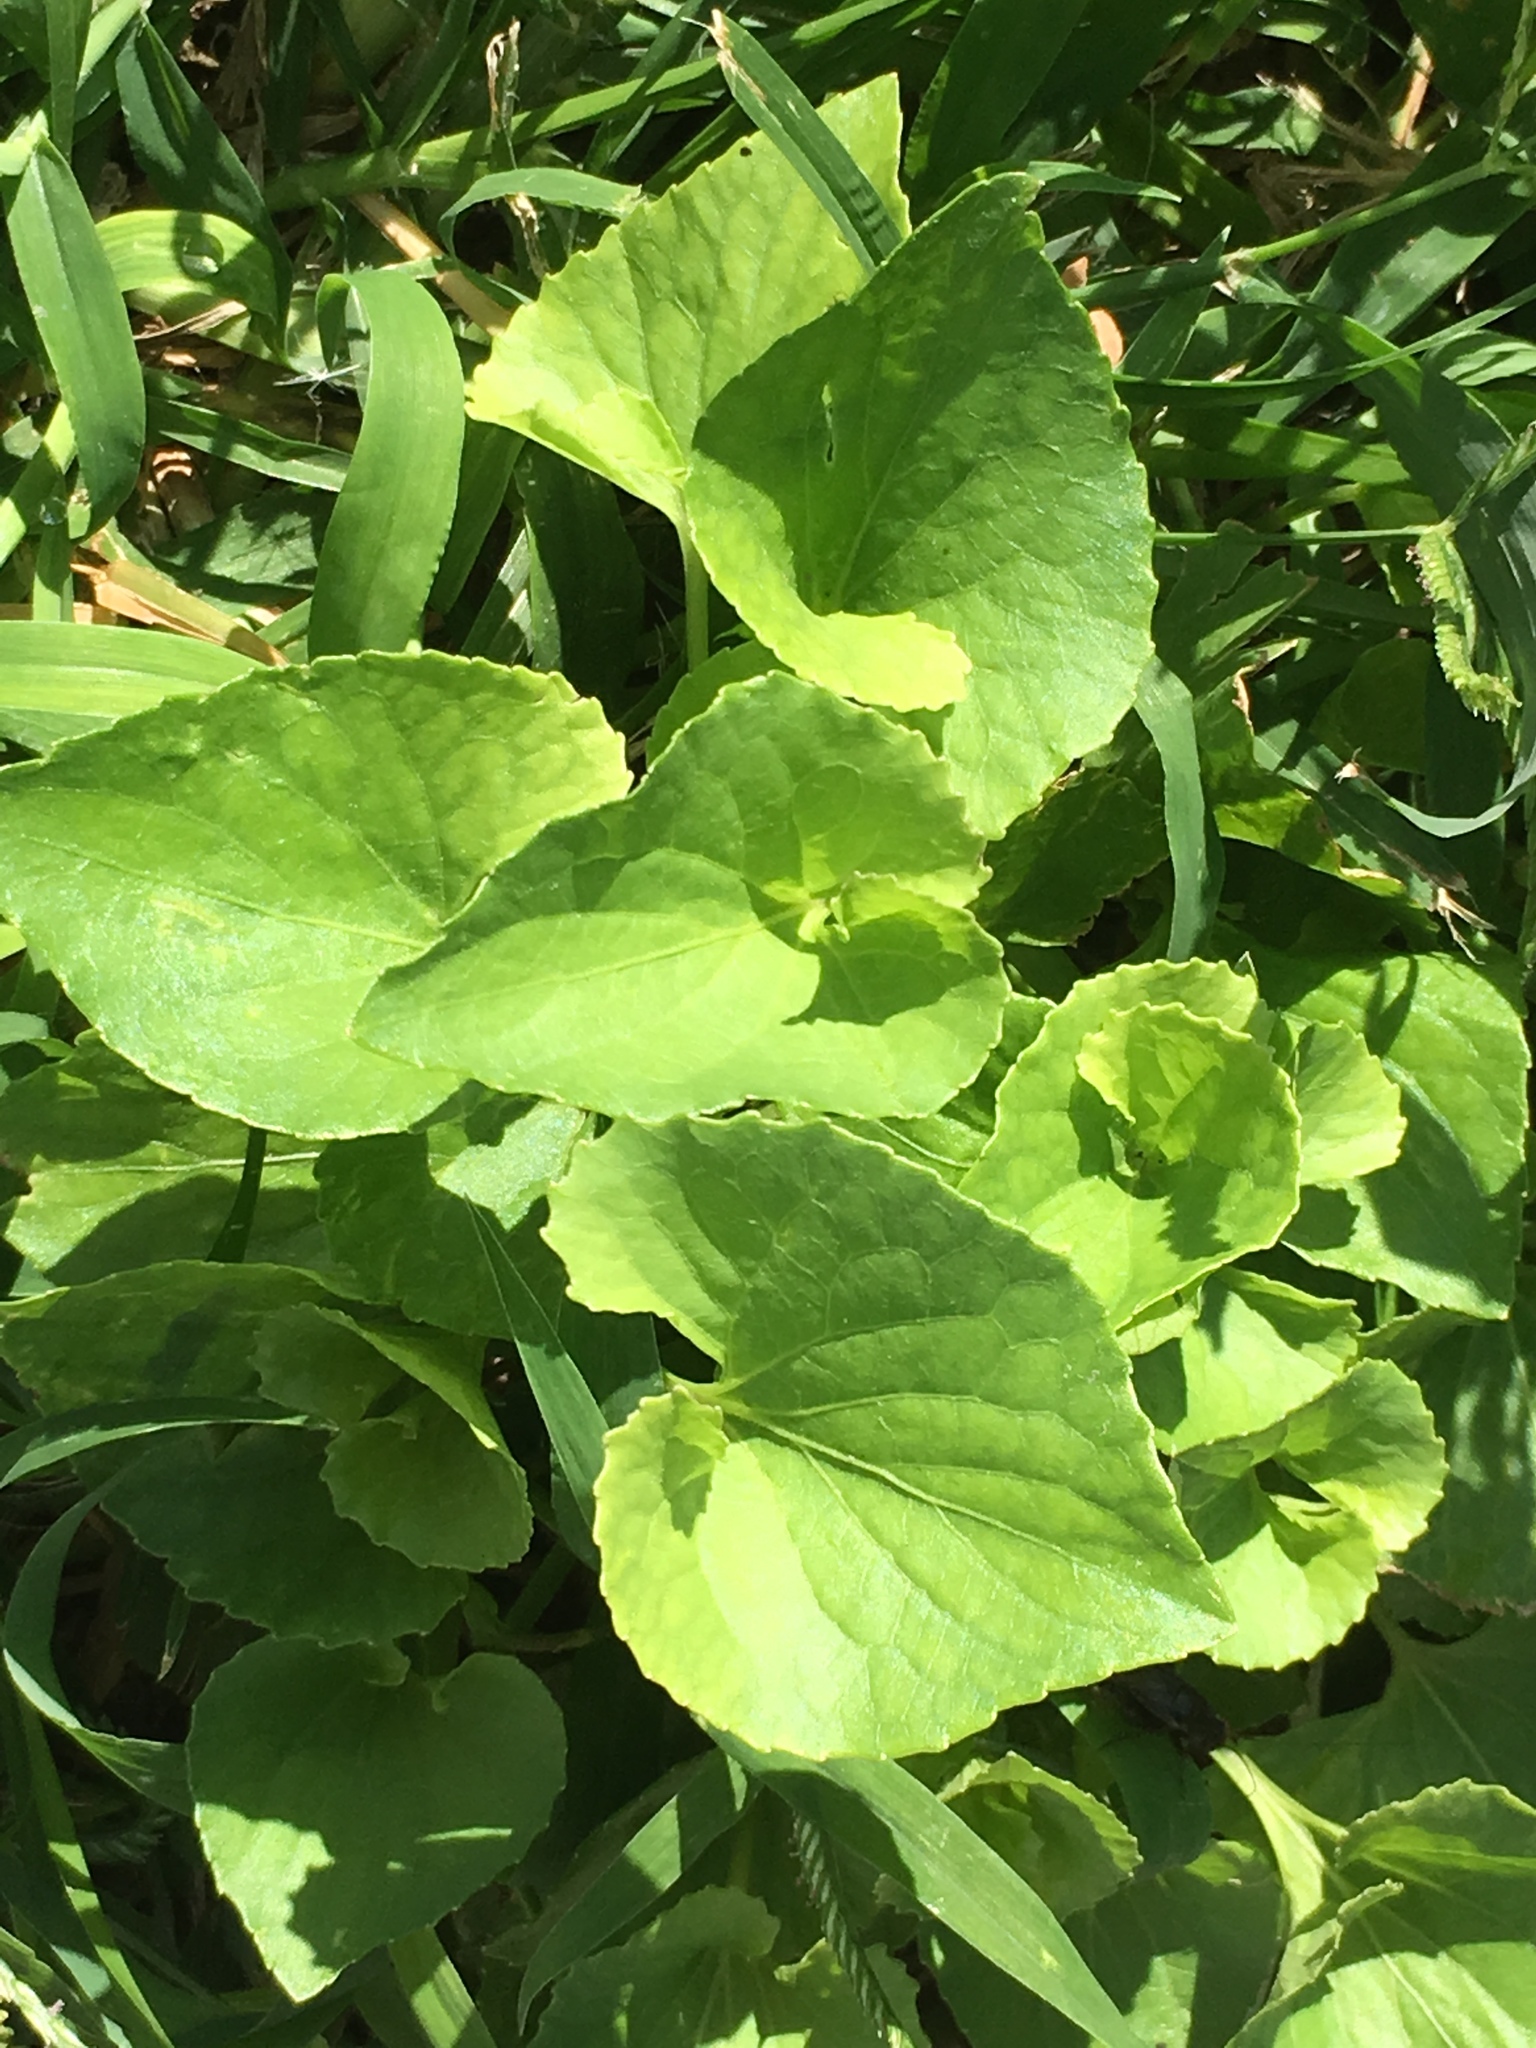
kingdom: Plantae
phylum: Tracheophyta
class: Magnoliopsida
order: Malpighiales
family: Violaceae
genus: Viola
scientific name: Viola
